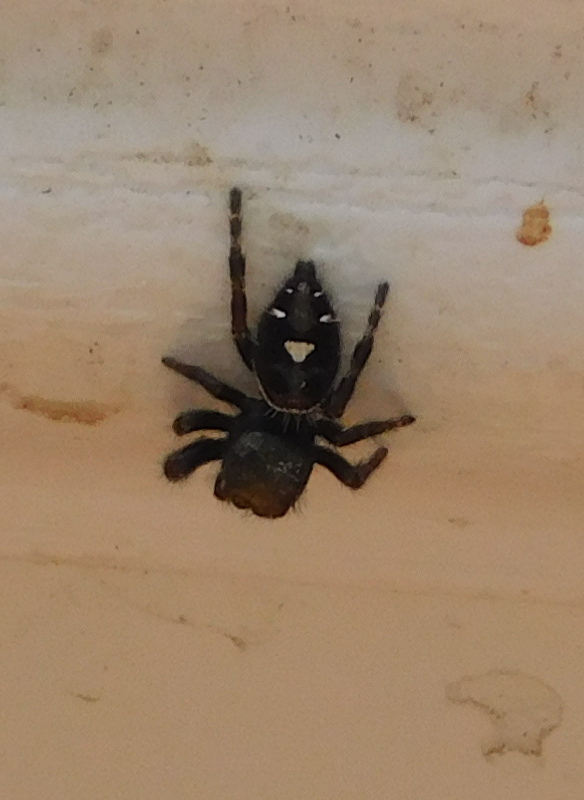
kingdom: Animalia
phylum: Arthropoda
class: Arachnida
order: Araneae
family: Salticidae
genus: Phidippus
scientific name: Phidippus audax
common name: Bold jumper
